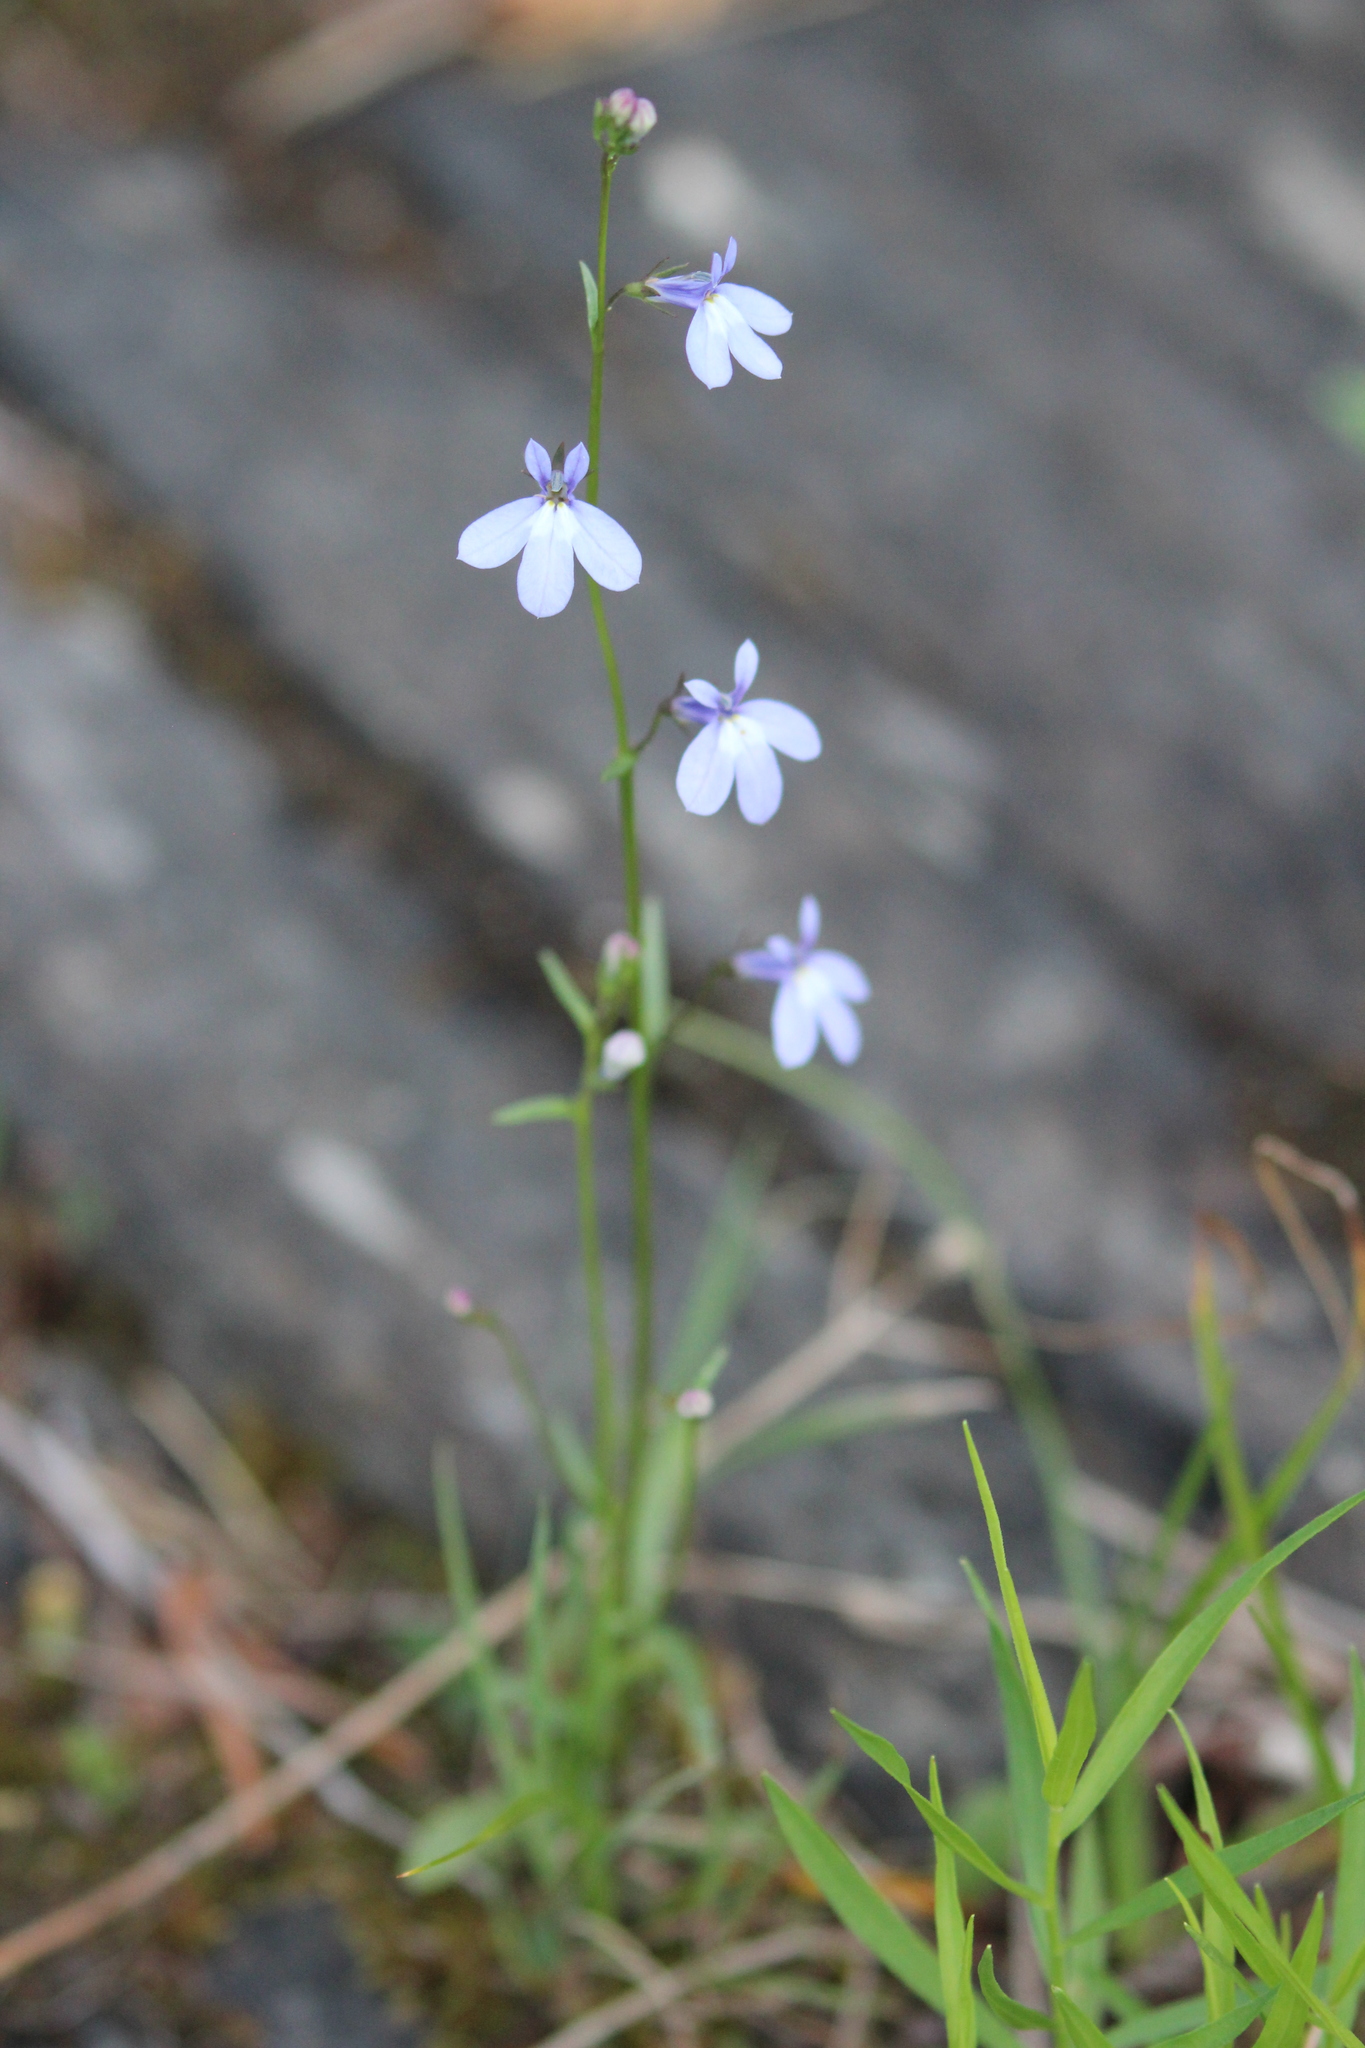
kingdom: Plantae
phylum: Tracheophyta
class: Magnoliopsida
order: Asterales
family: Campanulaceae
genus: Lobelia
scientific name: Lobelia kalmii
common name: Kalm's lobelia
